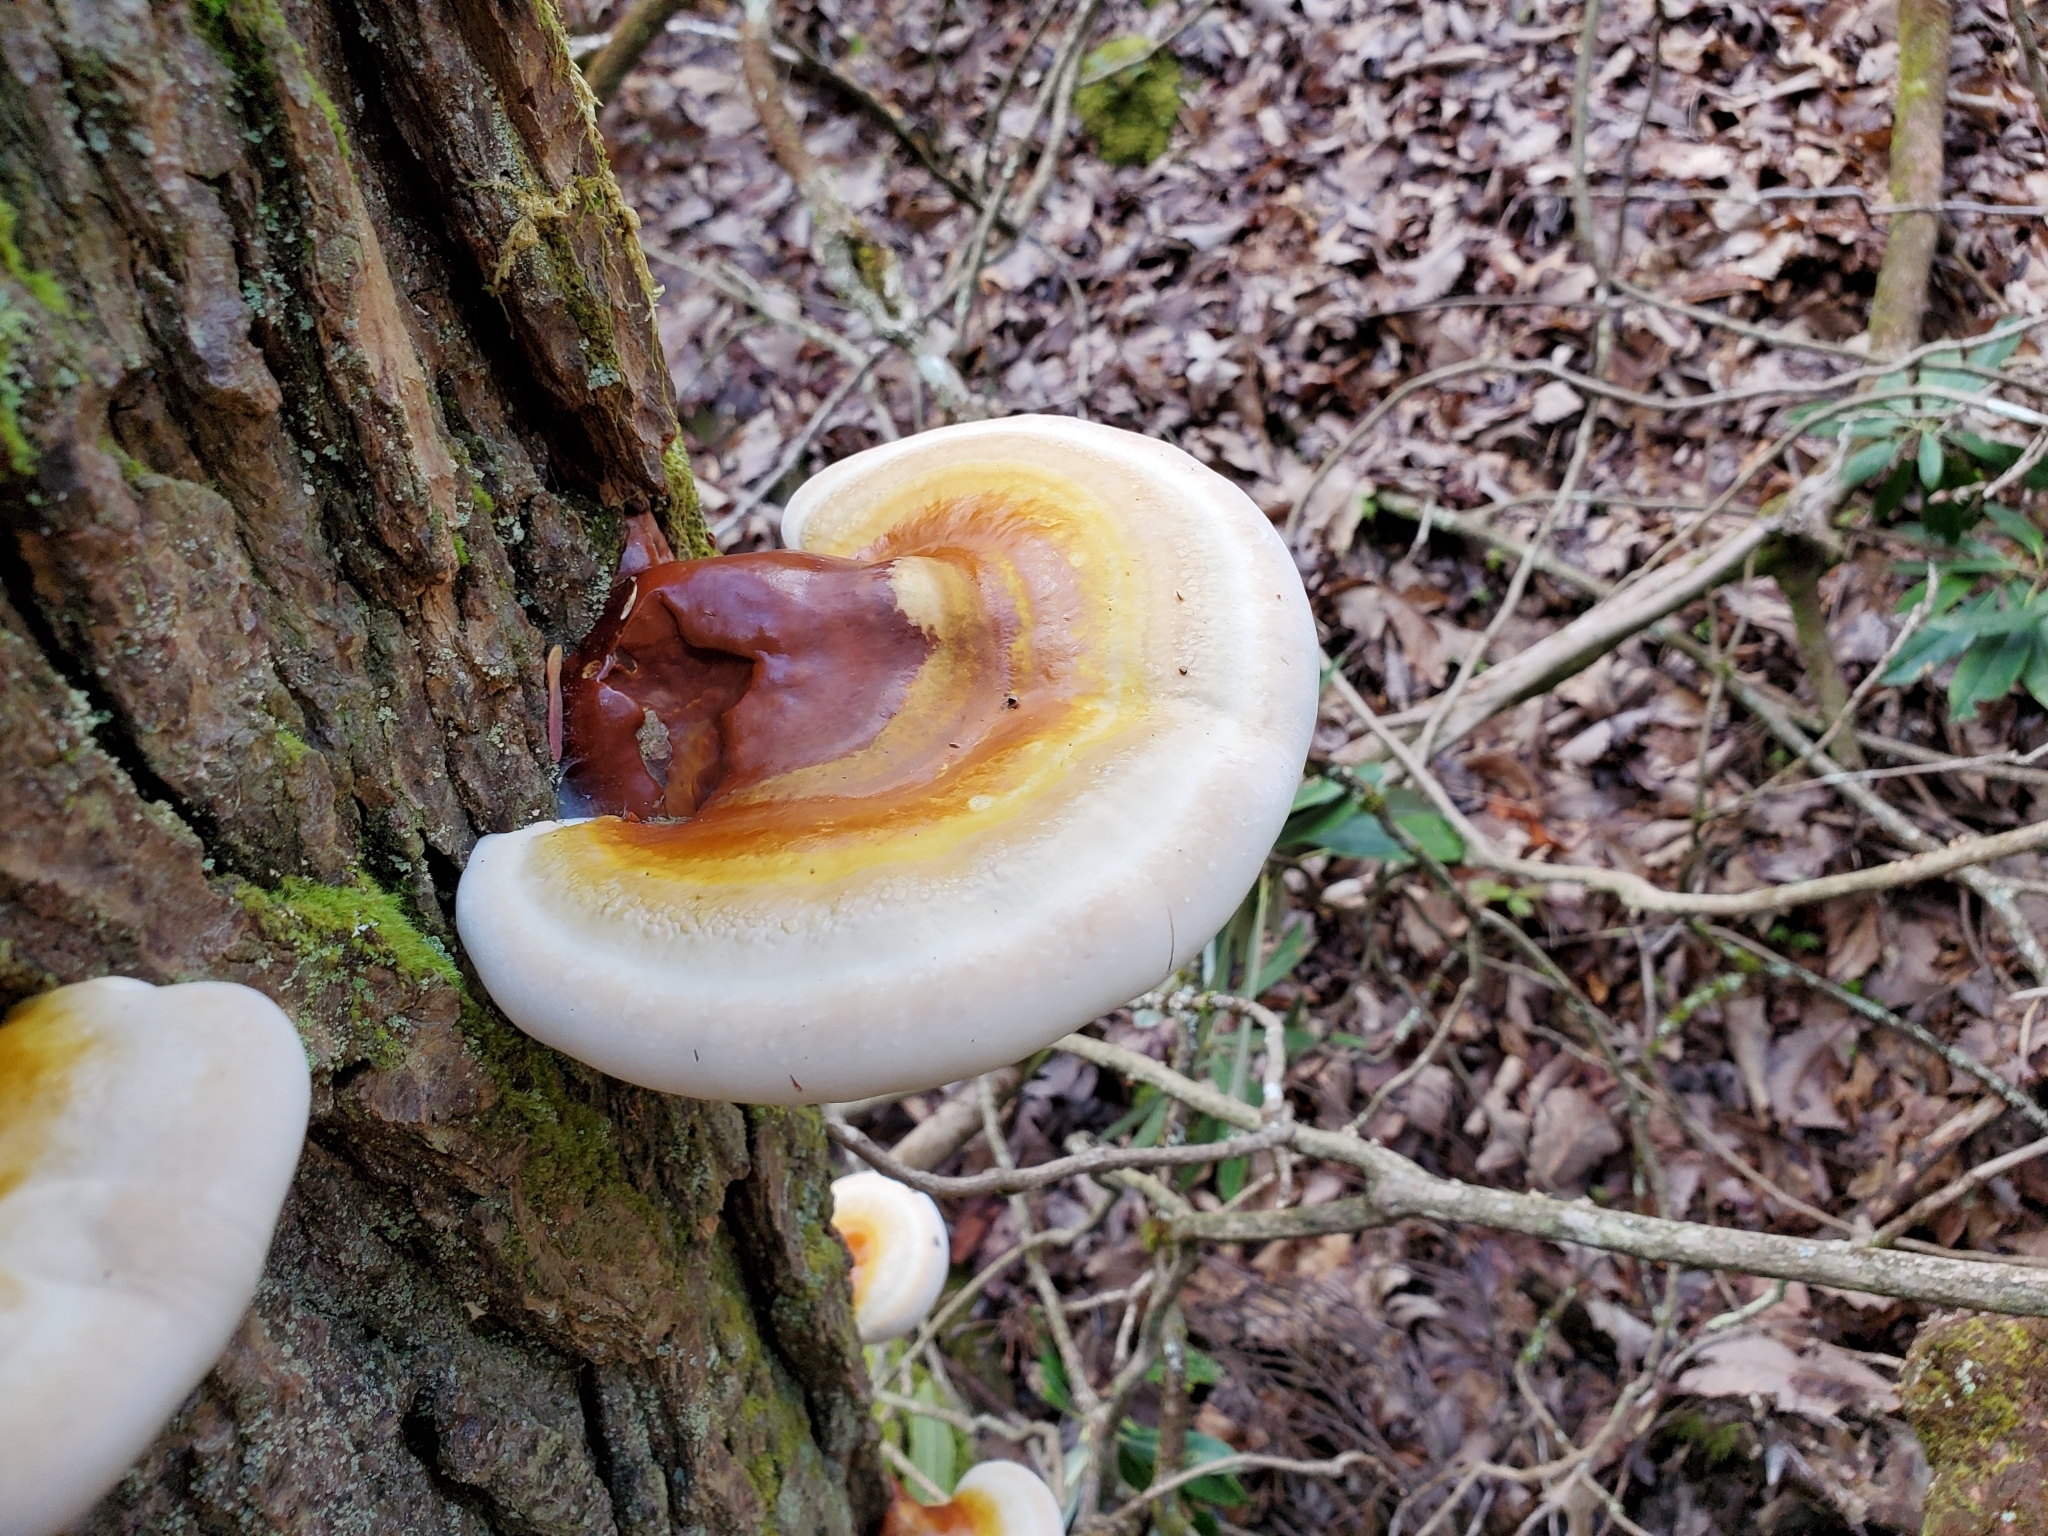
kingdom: Fungi
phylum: Basidiomycota
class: Agaricomycetes
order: Polyporales
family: Polyporaceae
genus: Ganoderma
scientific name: Ganoderma tsugae
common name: Hemlock varnish shelf
